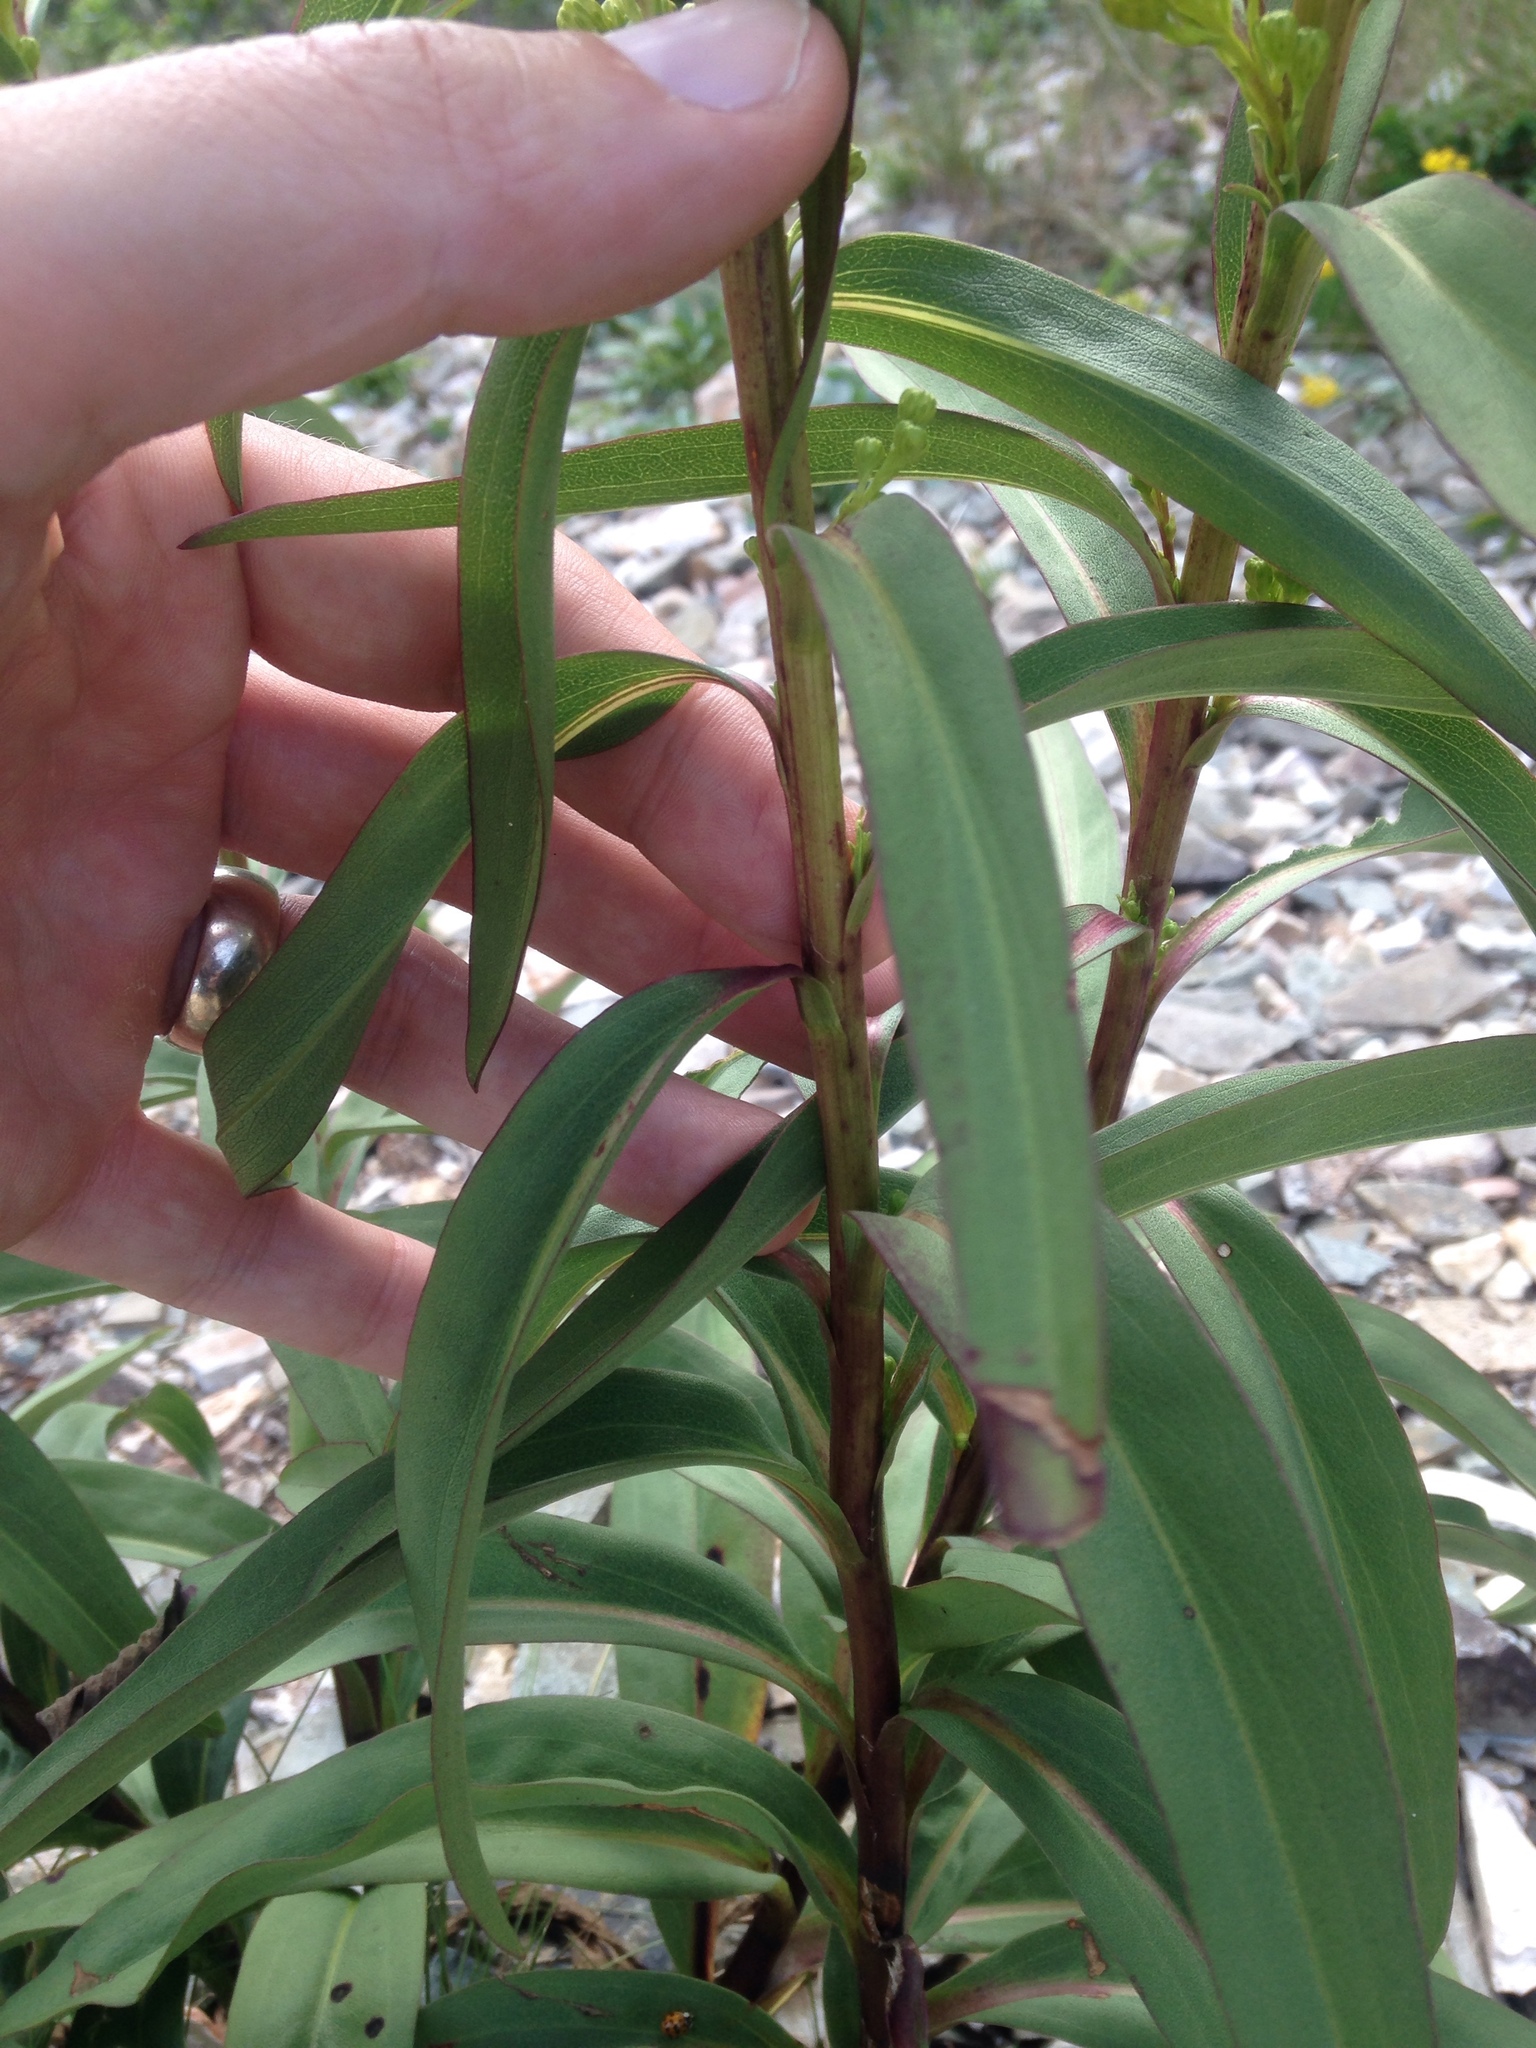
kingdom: Plantae
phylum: Tracheophyta
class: Magnoliopsida
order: Asterales
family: Asteraceae
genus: Solidago
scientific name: Solidago sempervirens
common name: Salt-marsh goldenrod
